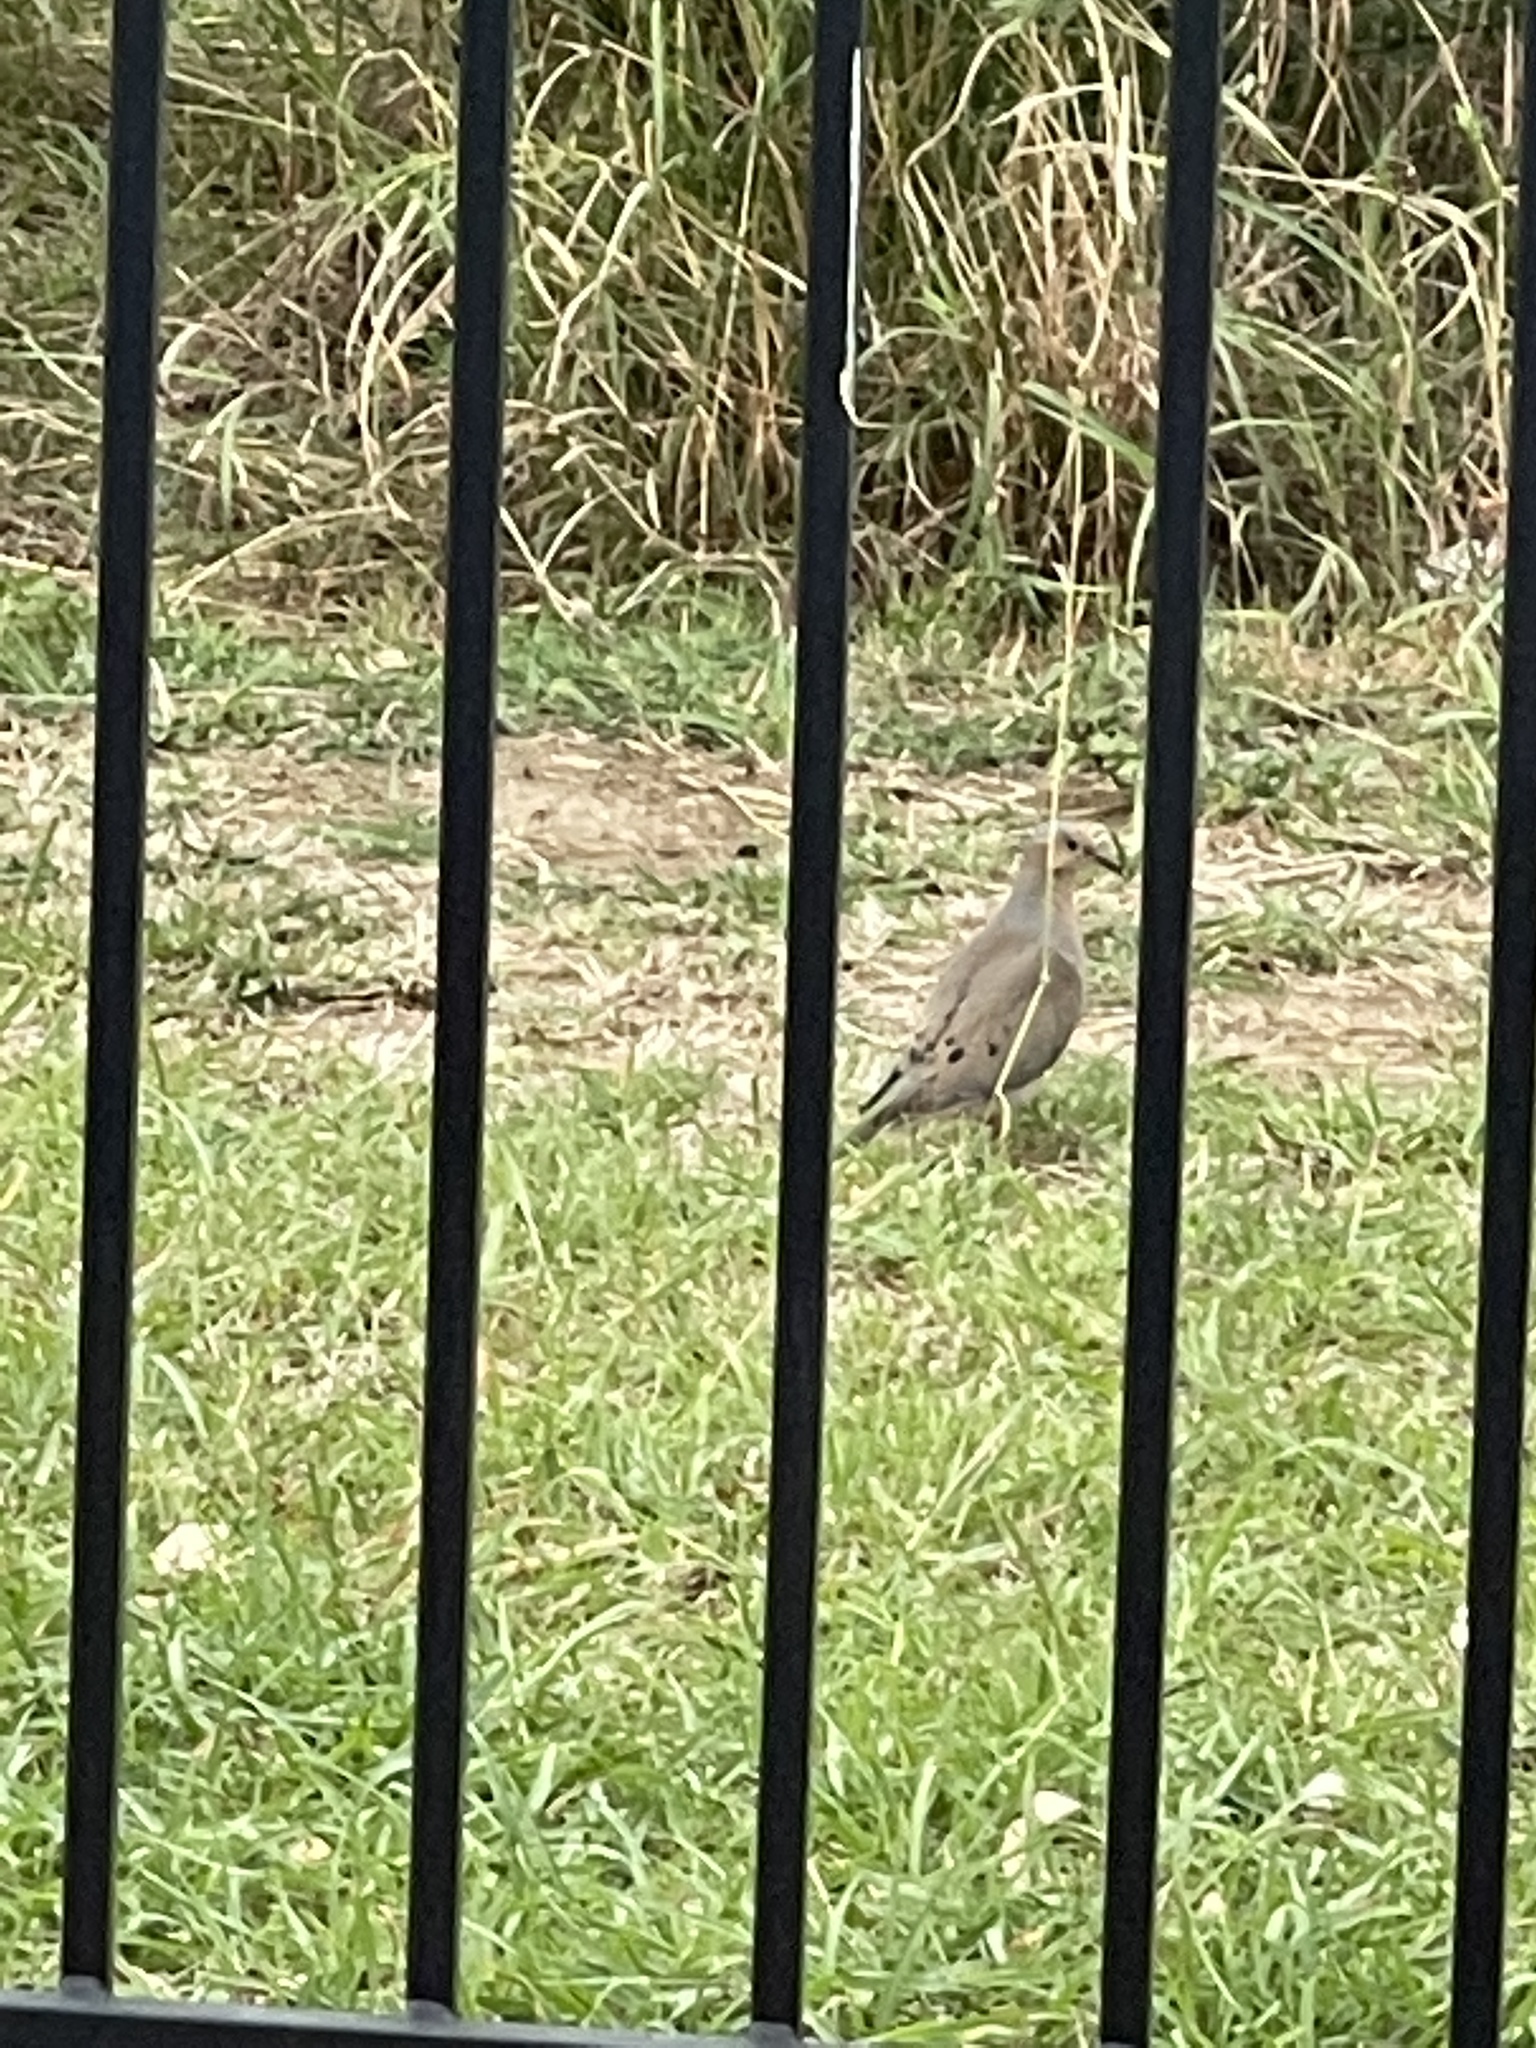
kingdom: Animalia
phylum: Chordata
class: Aves
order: Columbiformes
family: Columbidae
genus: Zenaida
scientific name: Zenaida macroura
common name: Mourning dove
